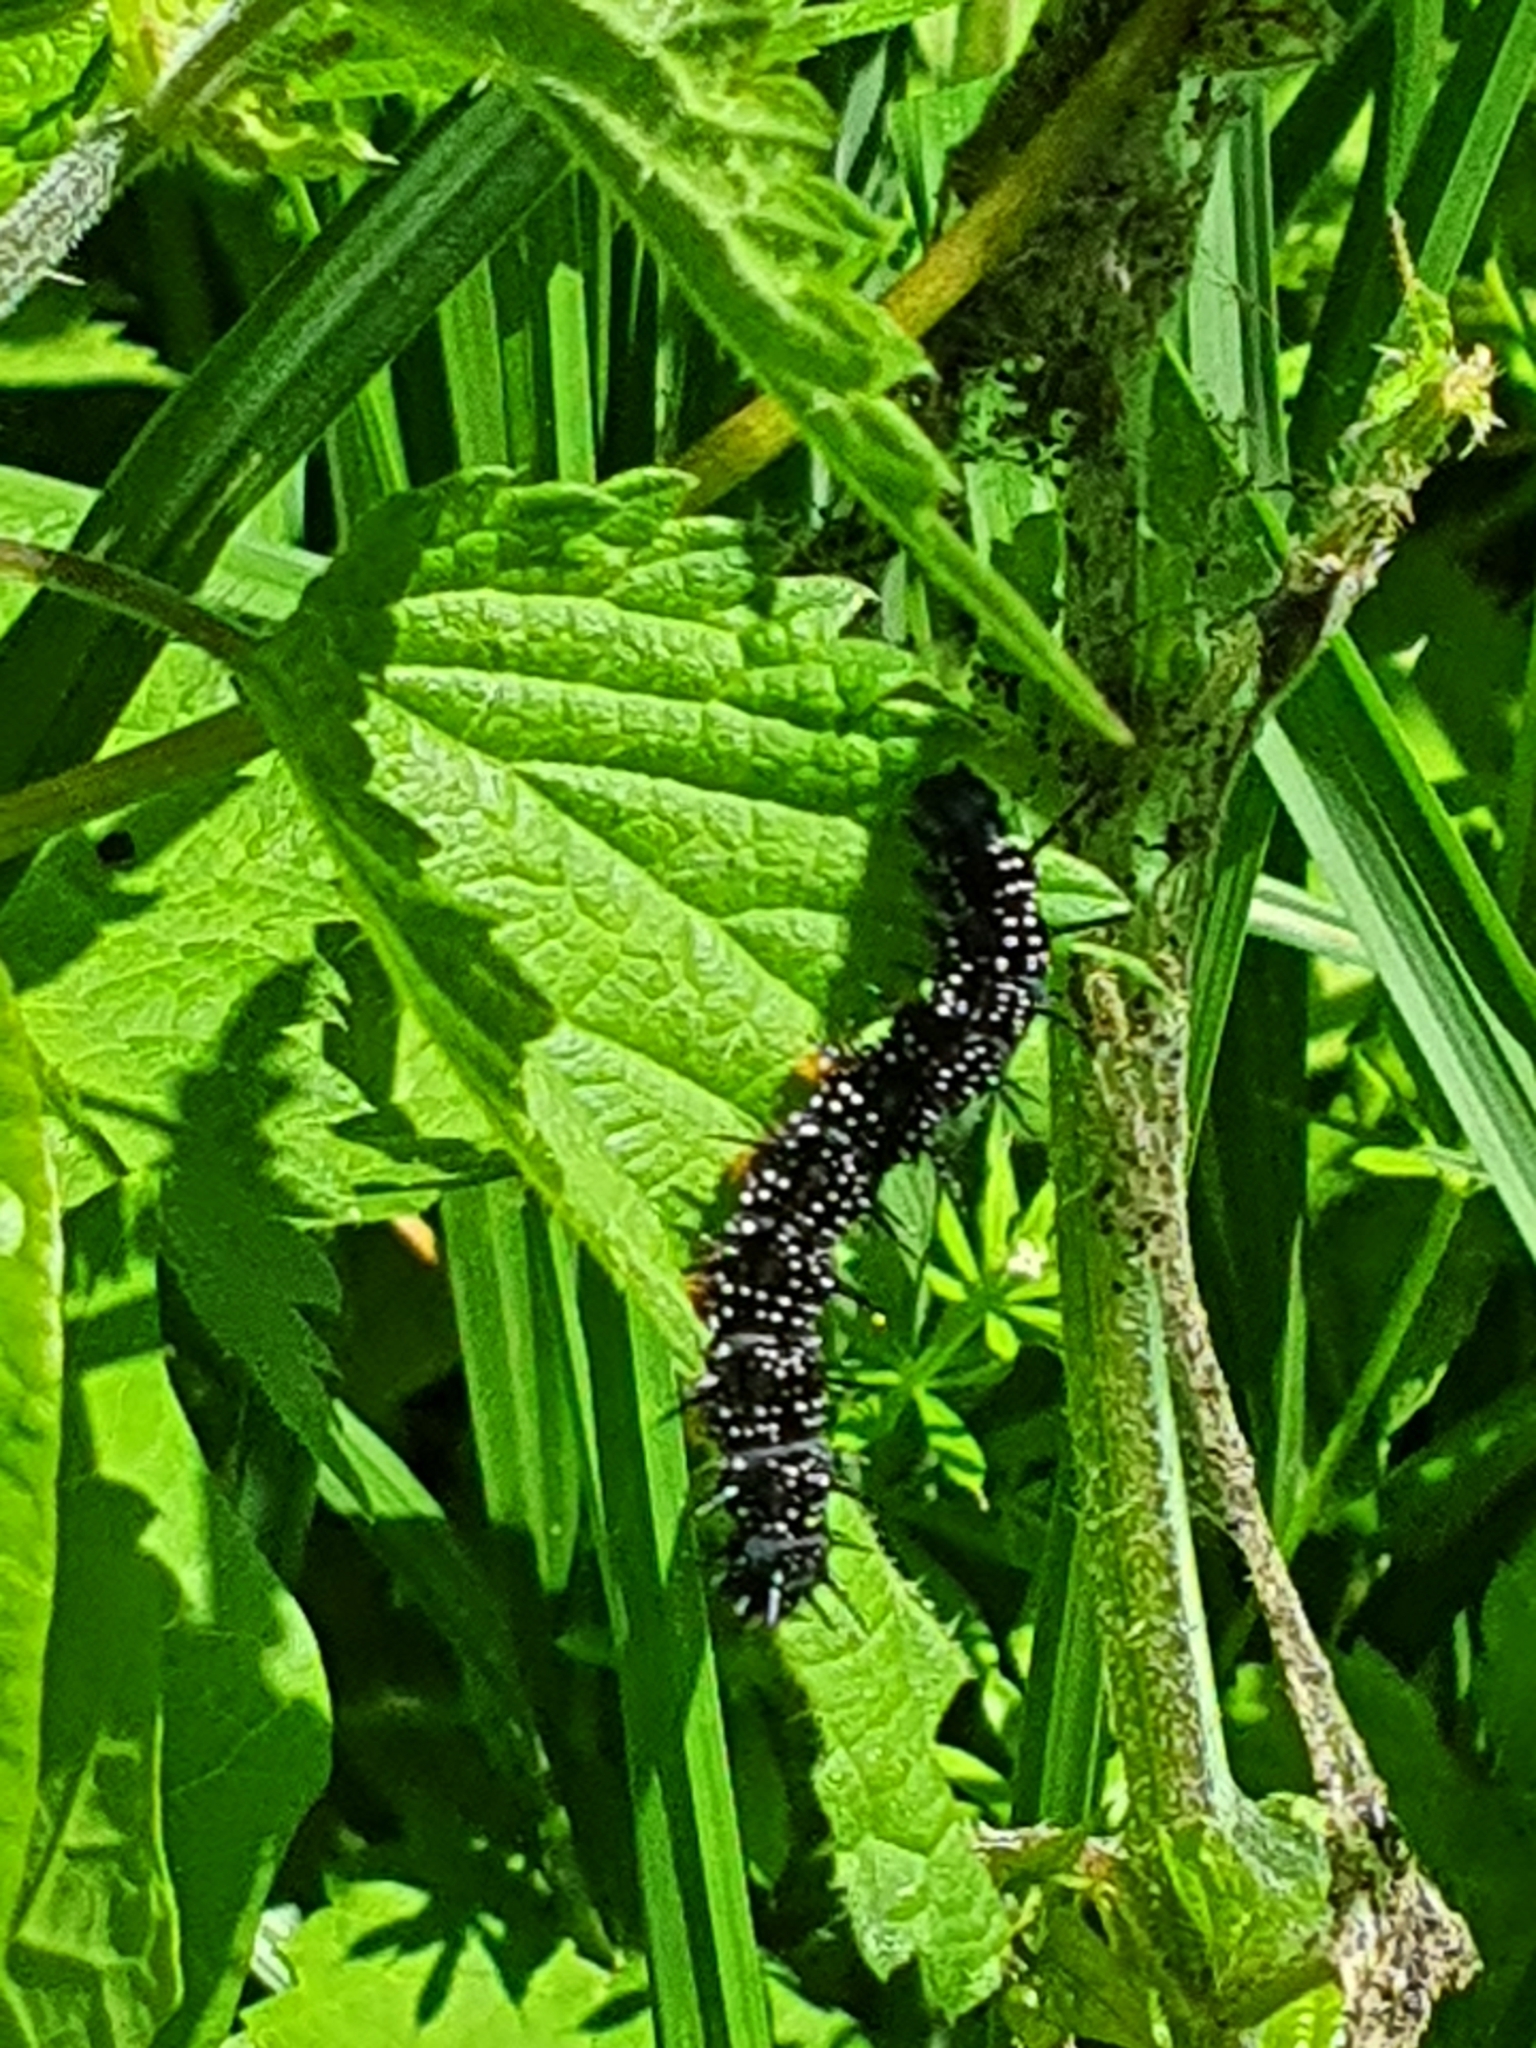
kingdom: Animalia
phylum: Arthropoda
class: Insecta
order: Lepidoptera
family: Nymphalidae
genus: Aglais
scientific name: Aglais io
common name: Peacock
